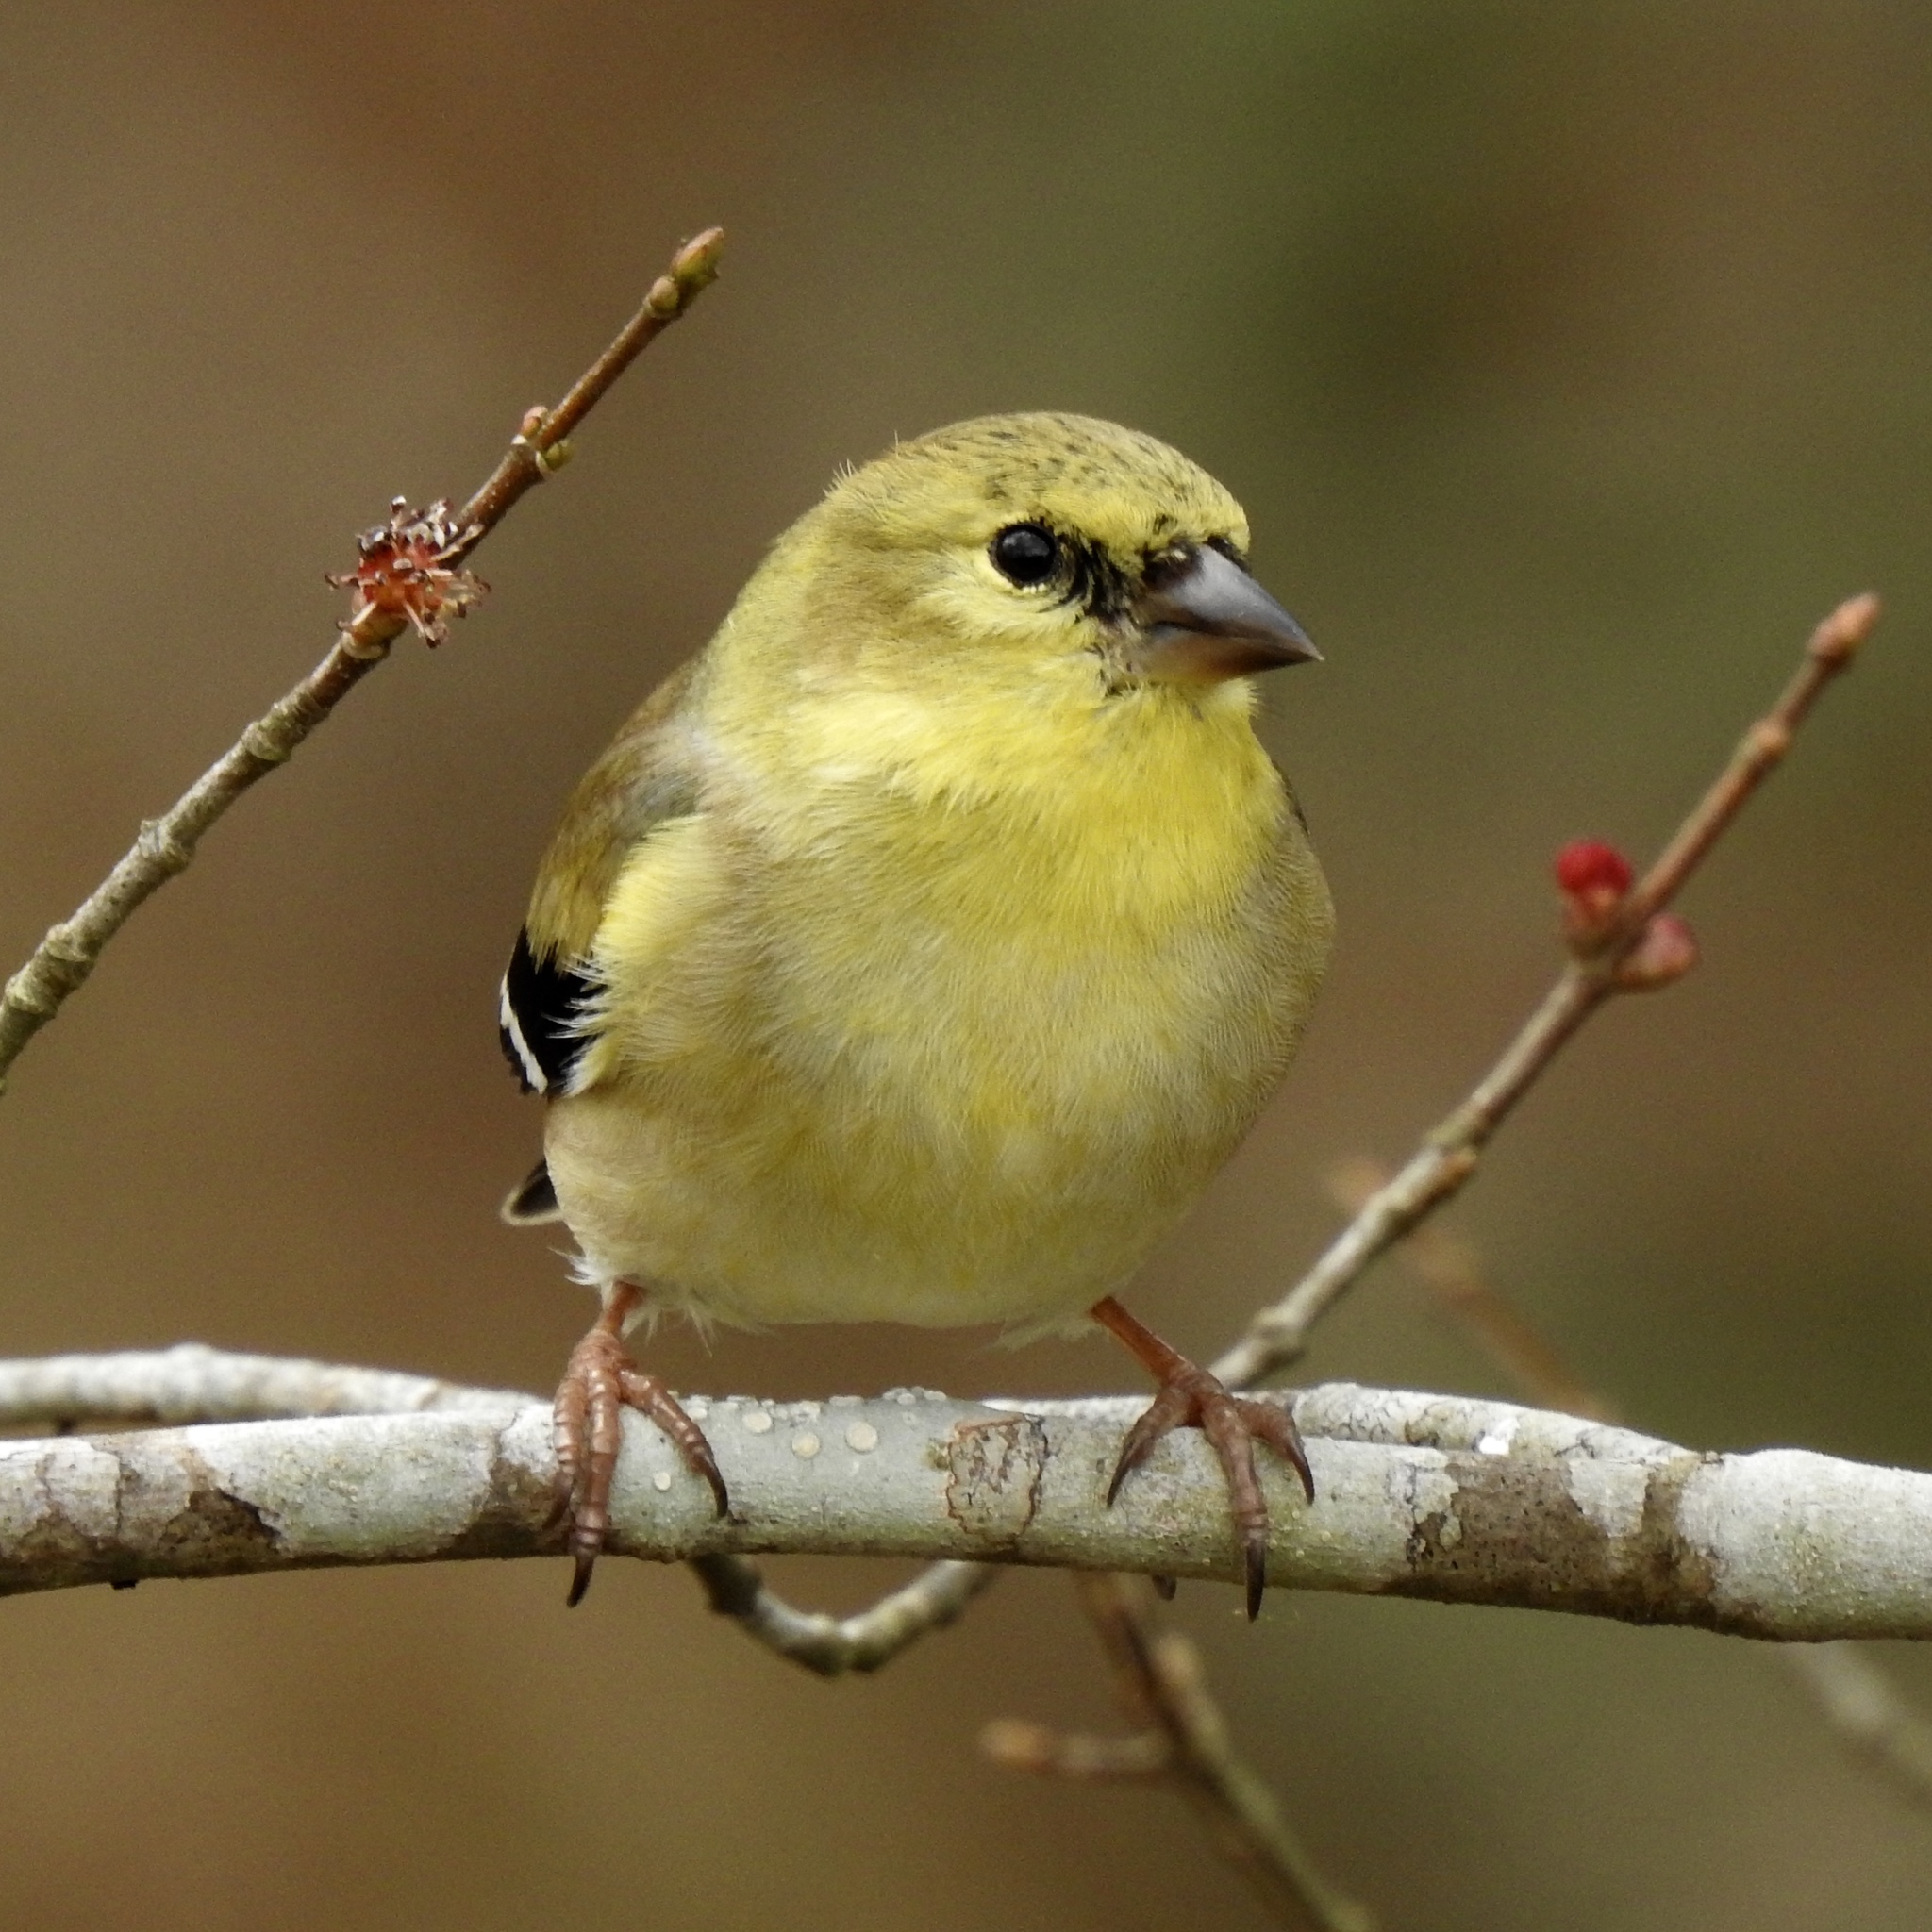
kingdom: Animalia
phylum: Chordata
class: Aves
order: Passeriformes
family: Fringillidae
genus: Spinus
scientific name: Spinus tristis
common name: American goldfinch
